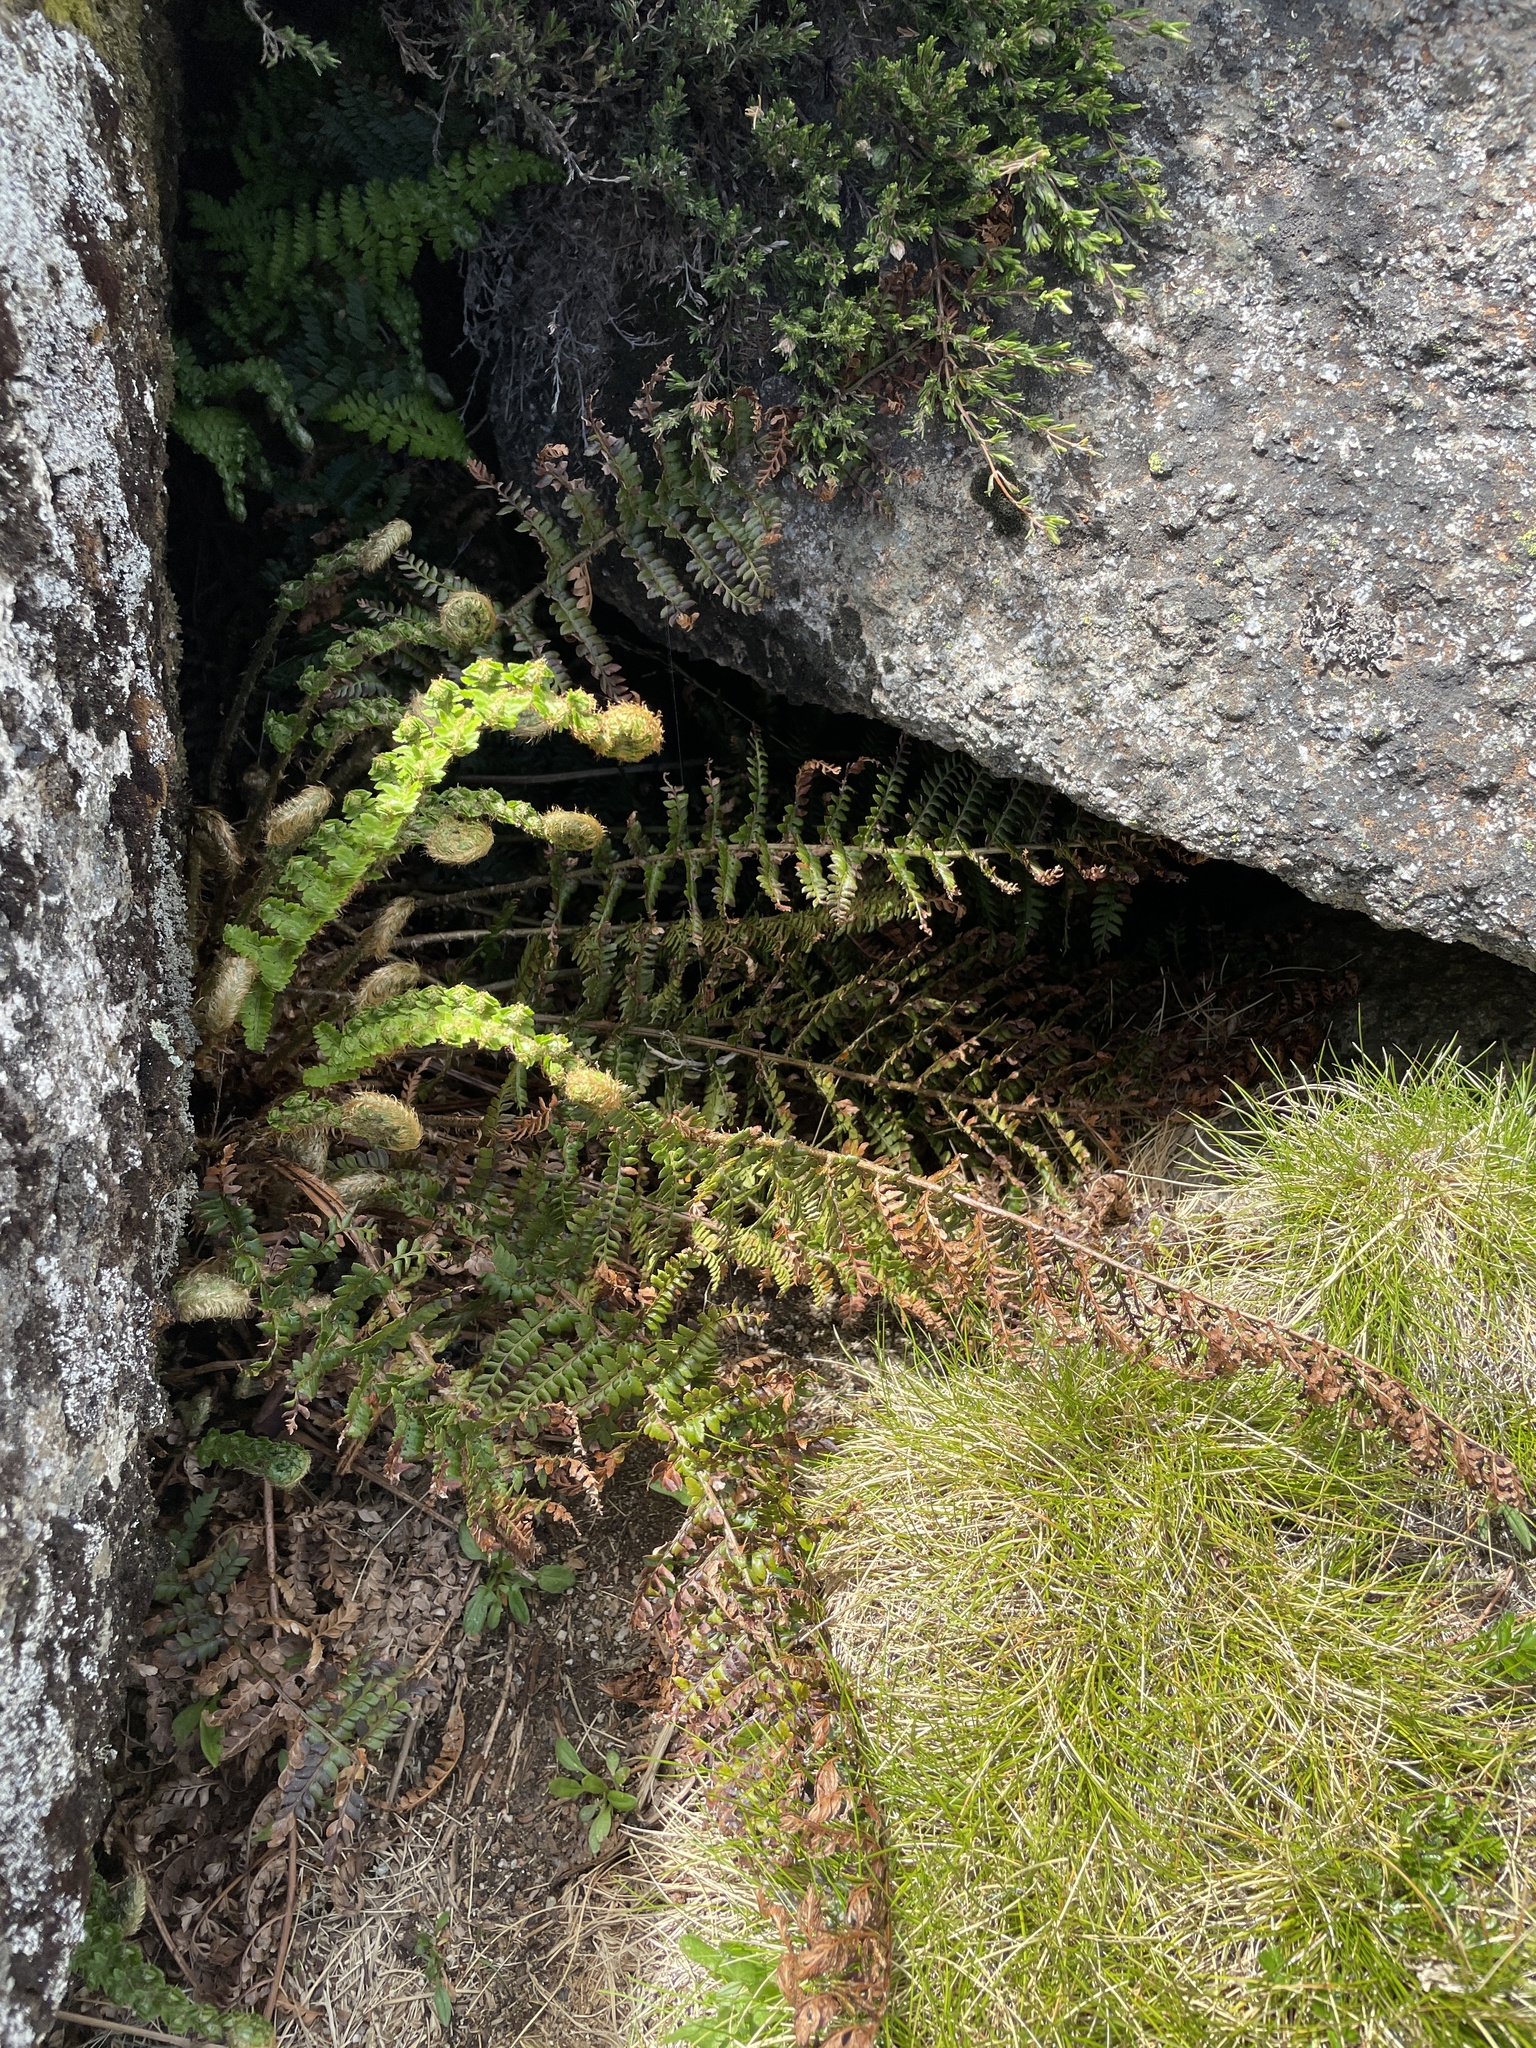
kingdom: Plantae
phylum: Tracheophyta
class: Polypodiopsida
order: Polypodiales
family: Dryopteridaceae
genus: Polystichum
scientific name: Polystichum proliferum
